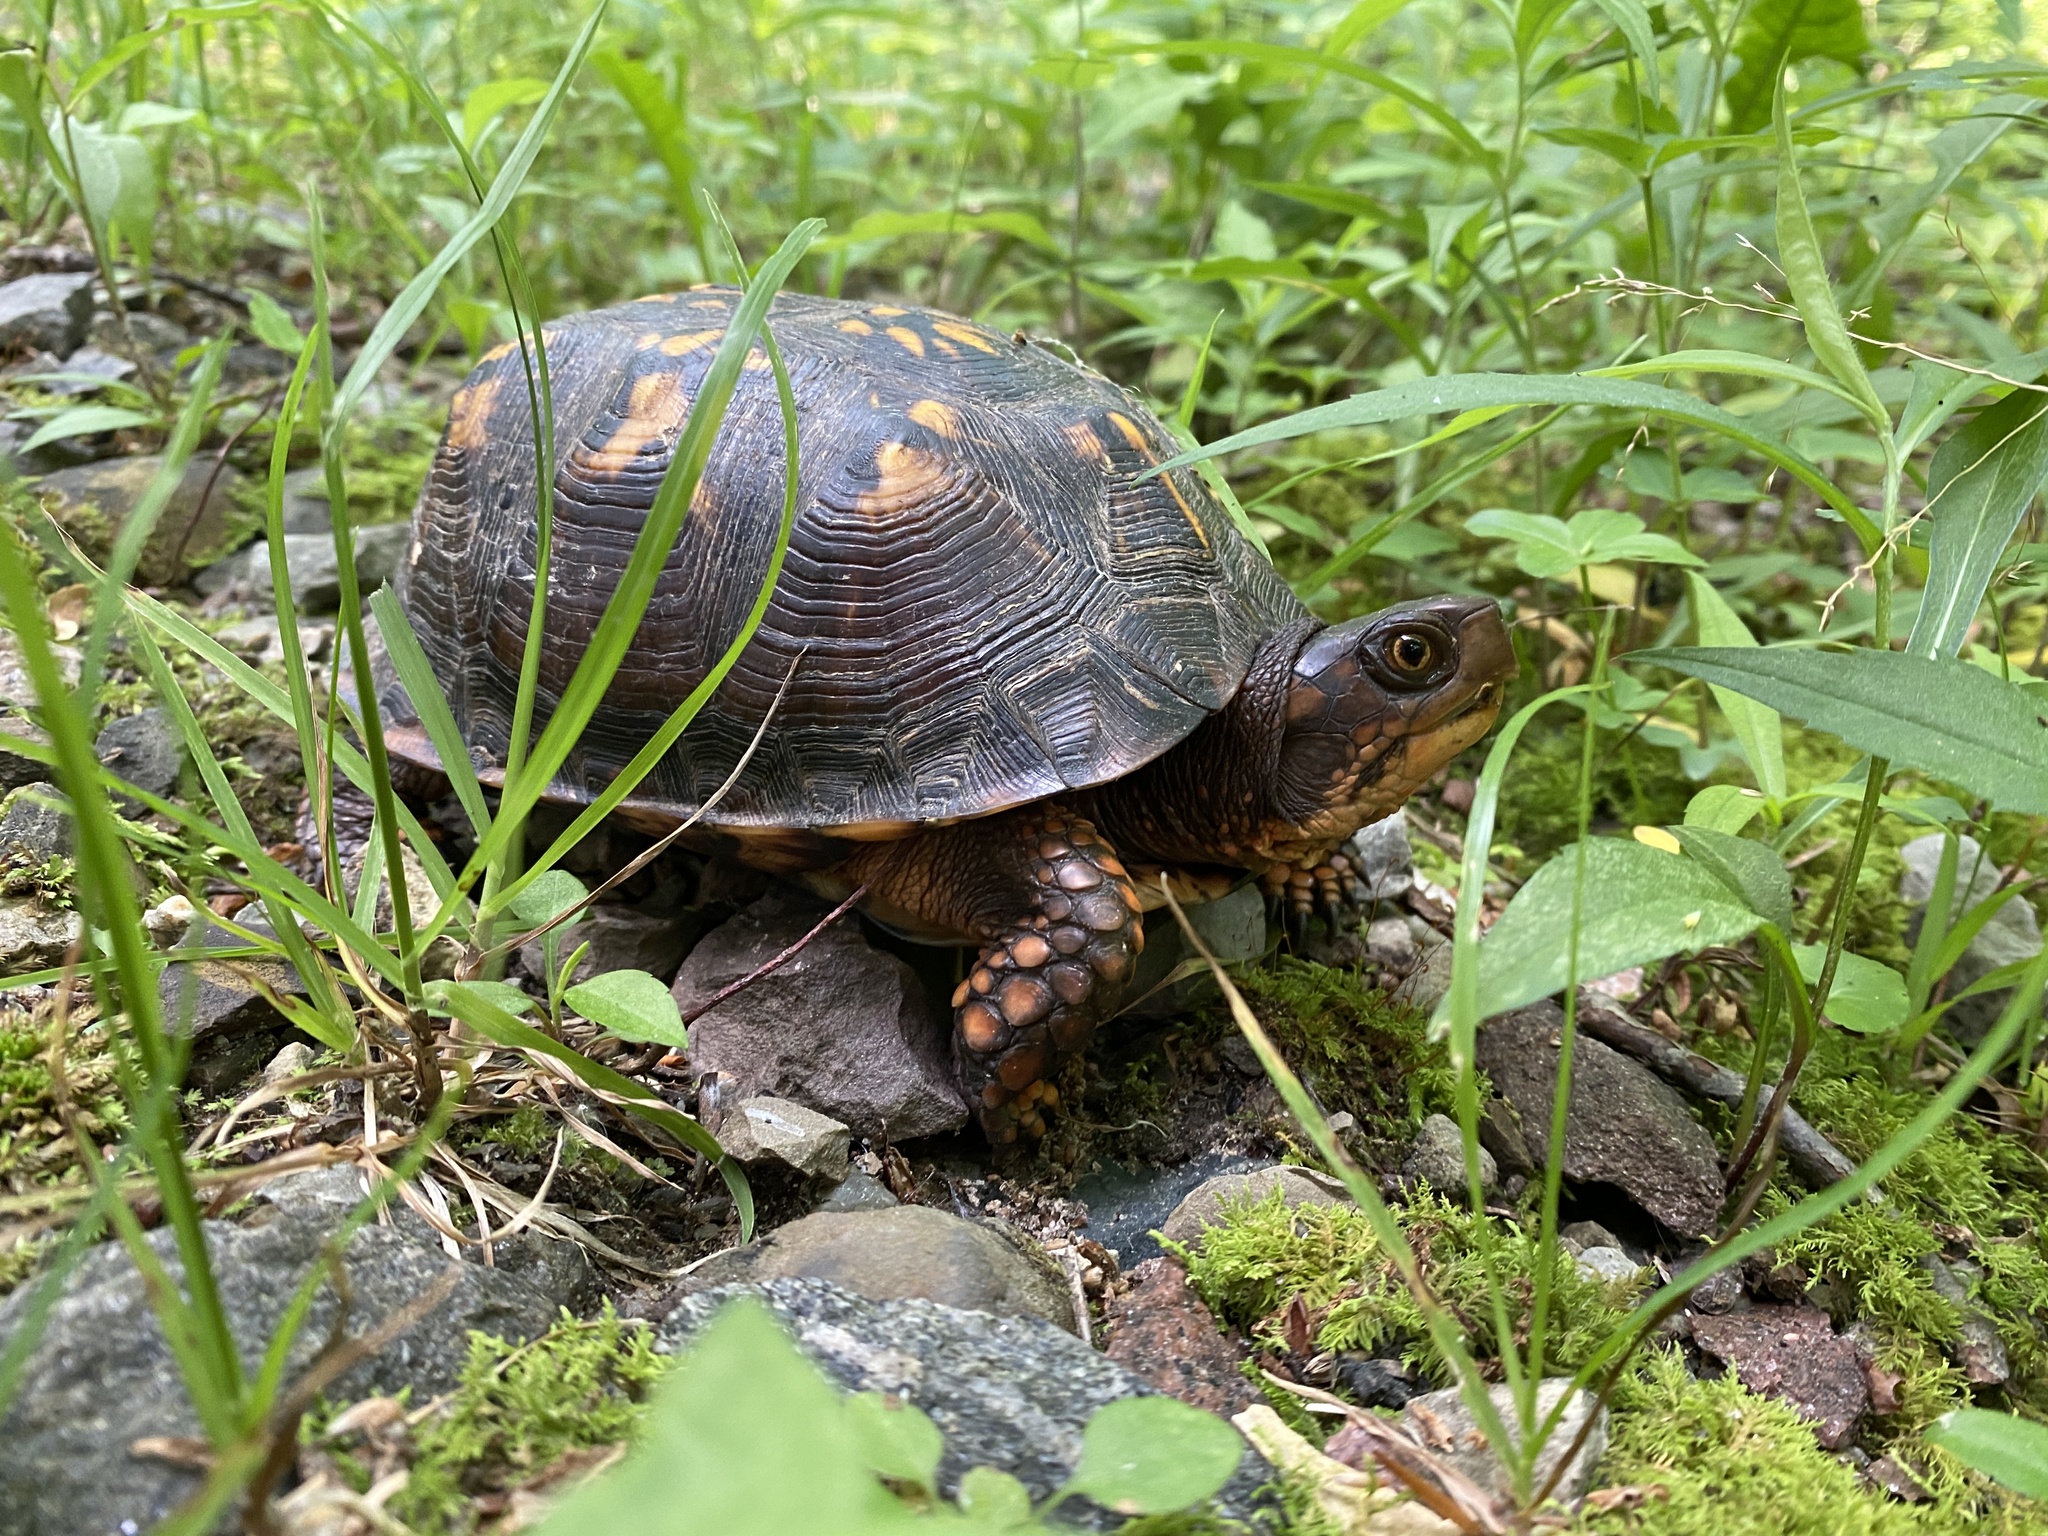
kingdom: Animalia
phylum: Chordata
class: Testudines
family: Emydidae
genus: Terrapene
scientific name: Terrapene carolina
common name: Common box turtle
